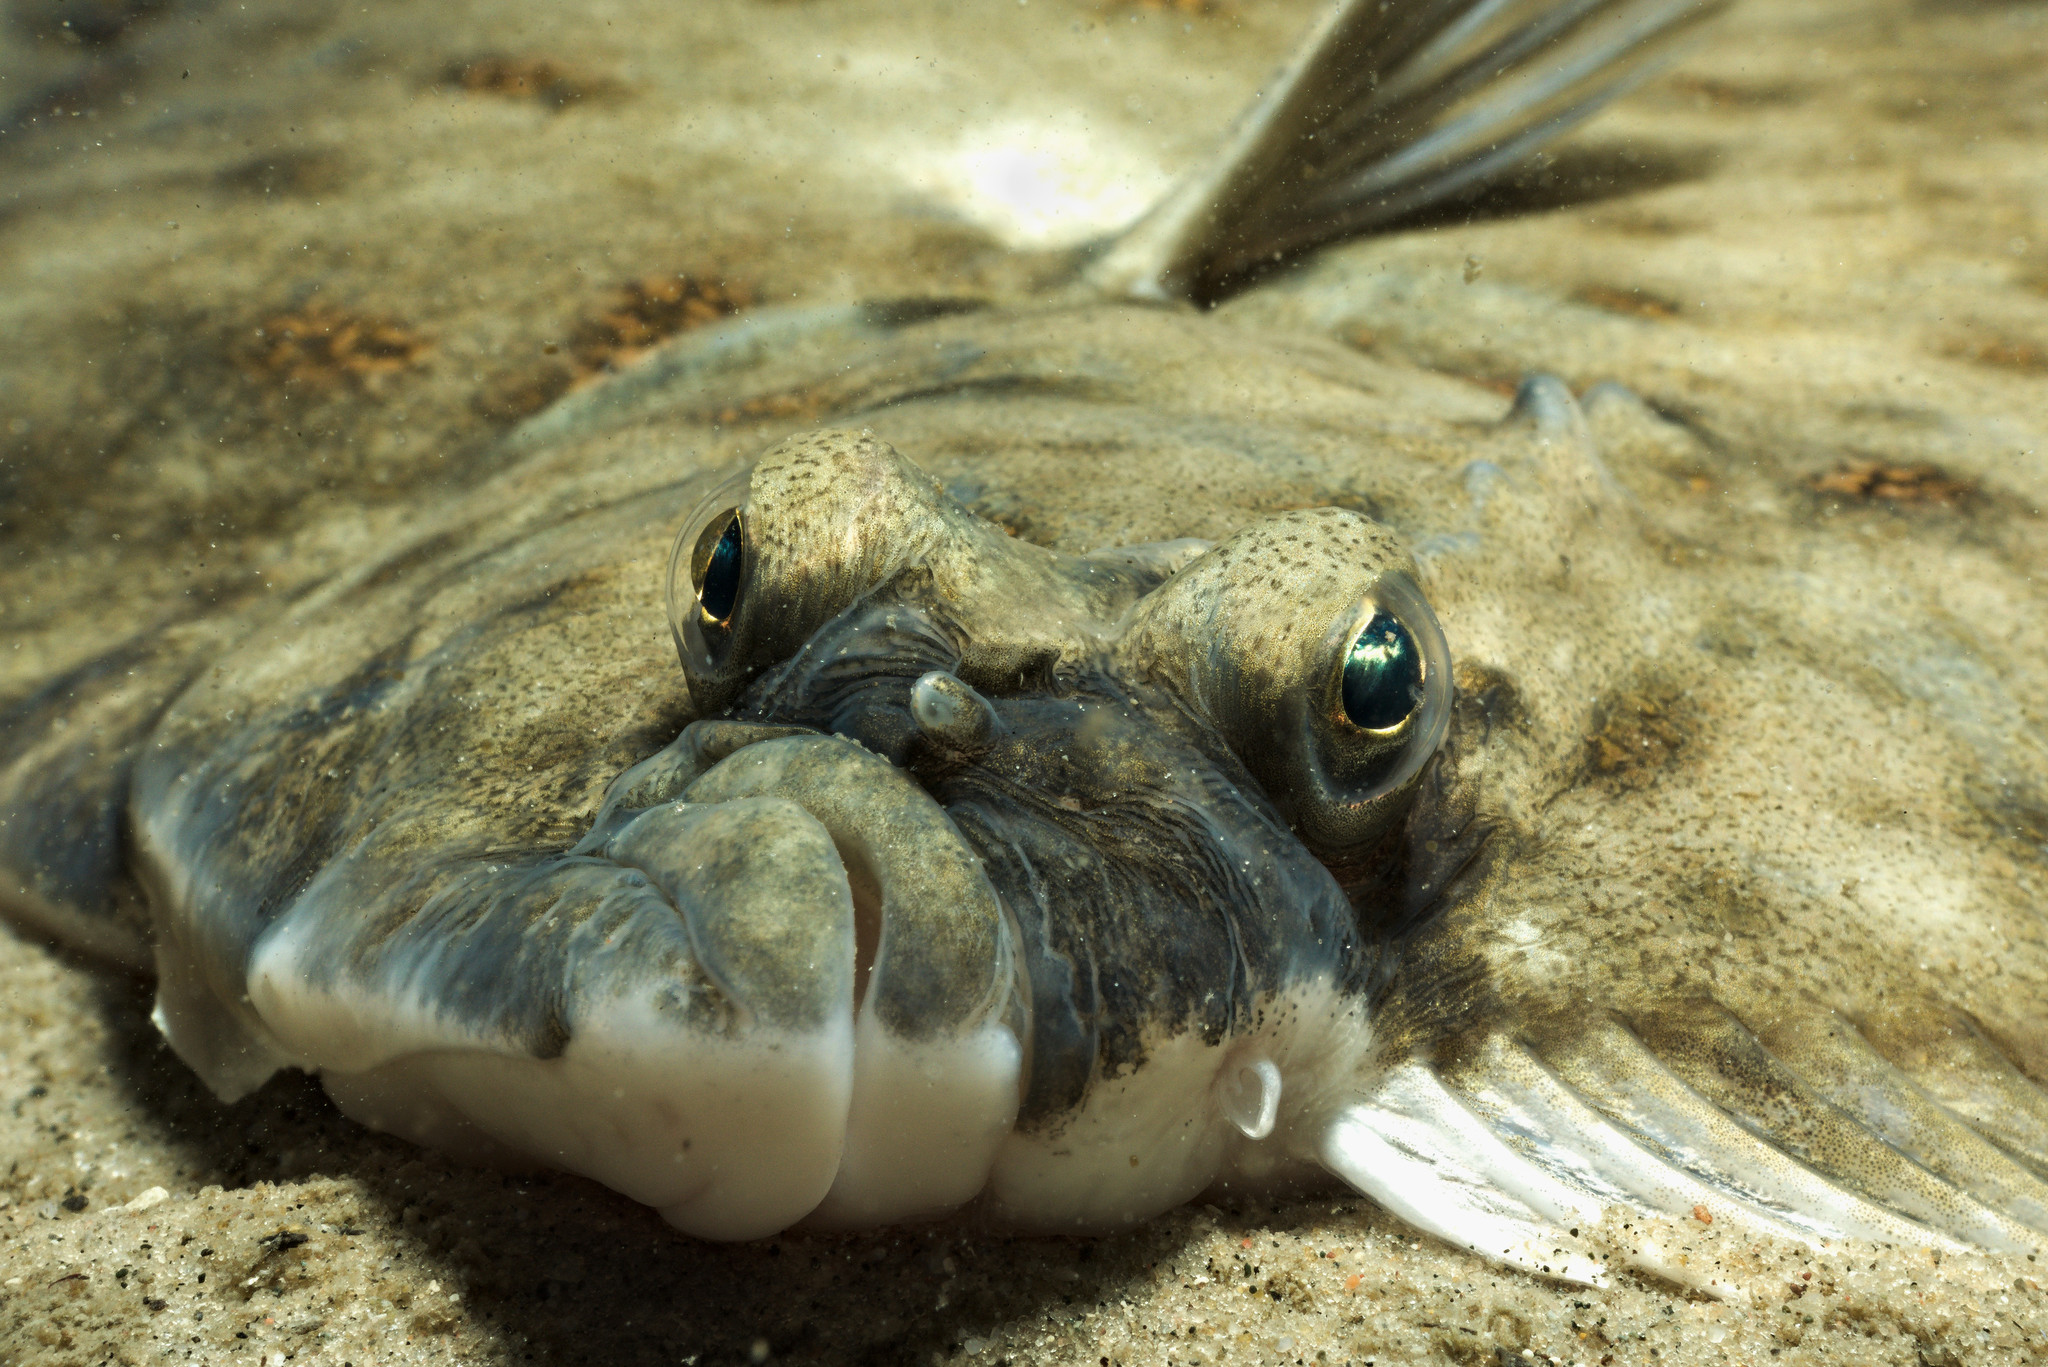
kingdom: Animalia
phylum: Chordata
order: Pleuronectiformes
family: Pleuronectidae
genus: Pleuronectes
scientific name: Pleuronectes platessa
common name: Plaice
